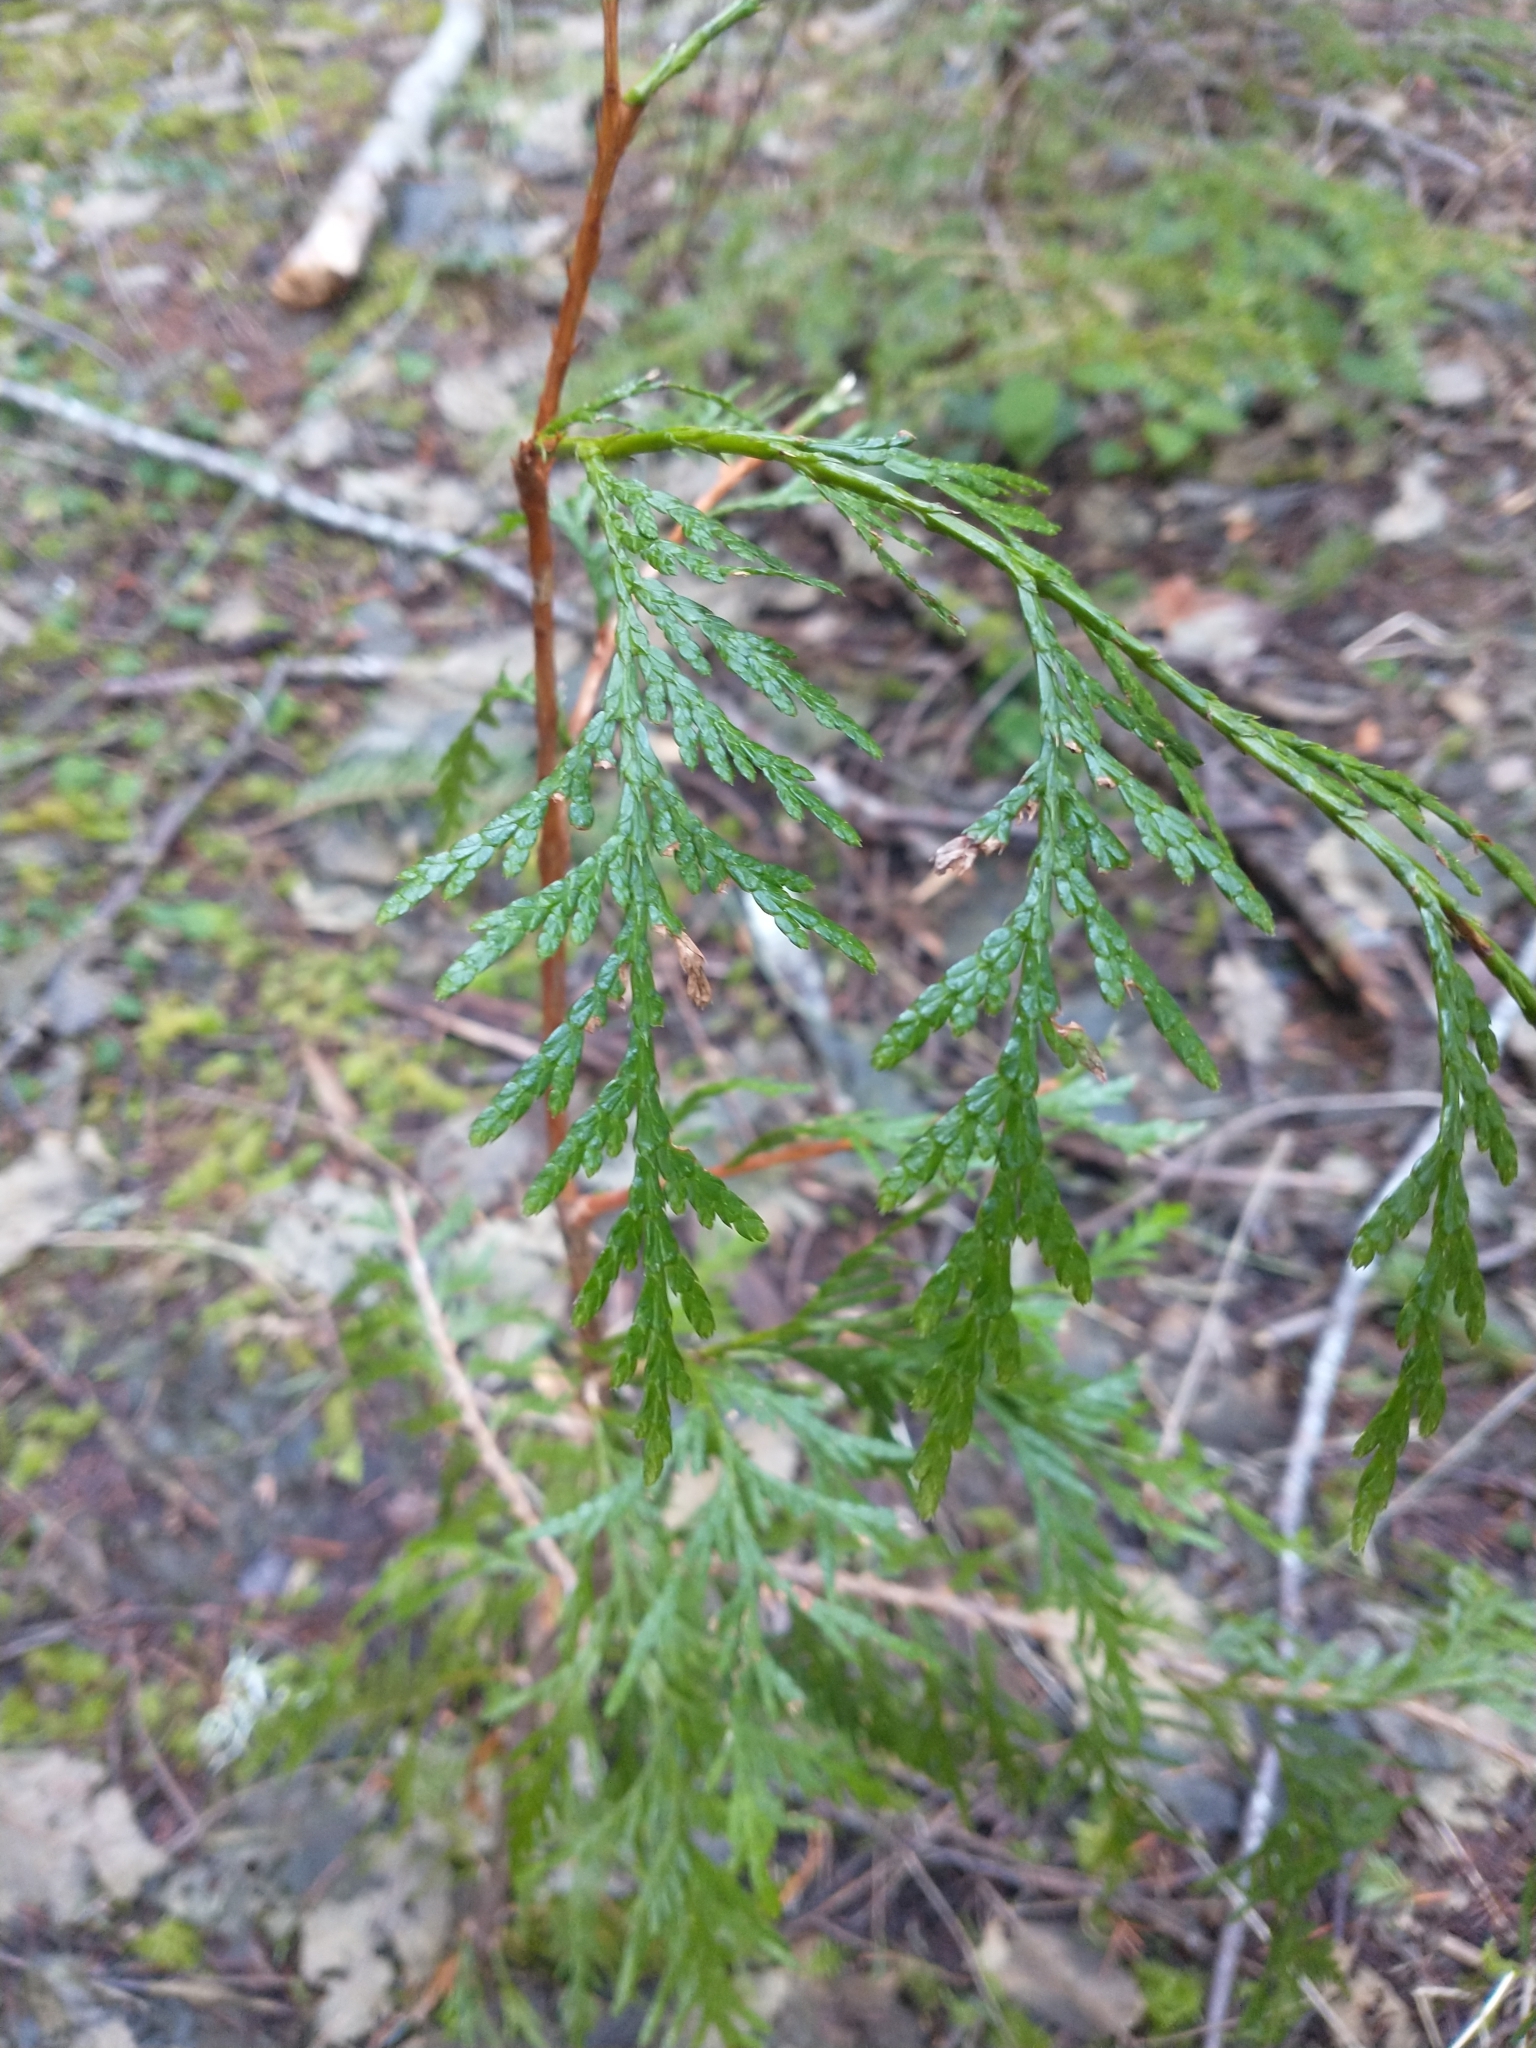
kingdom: Plantae
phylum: Tracheophyta
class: Pinopsida
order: Pinales
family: Cupressaceae
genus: Thuja
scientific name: Thuja plicata
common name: Western red-cedar
